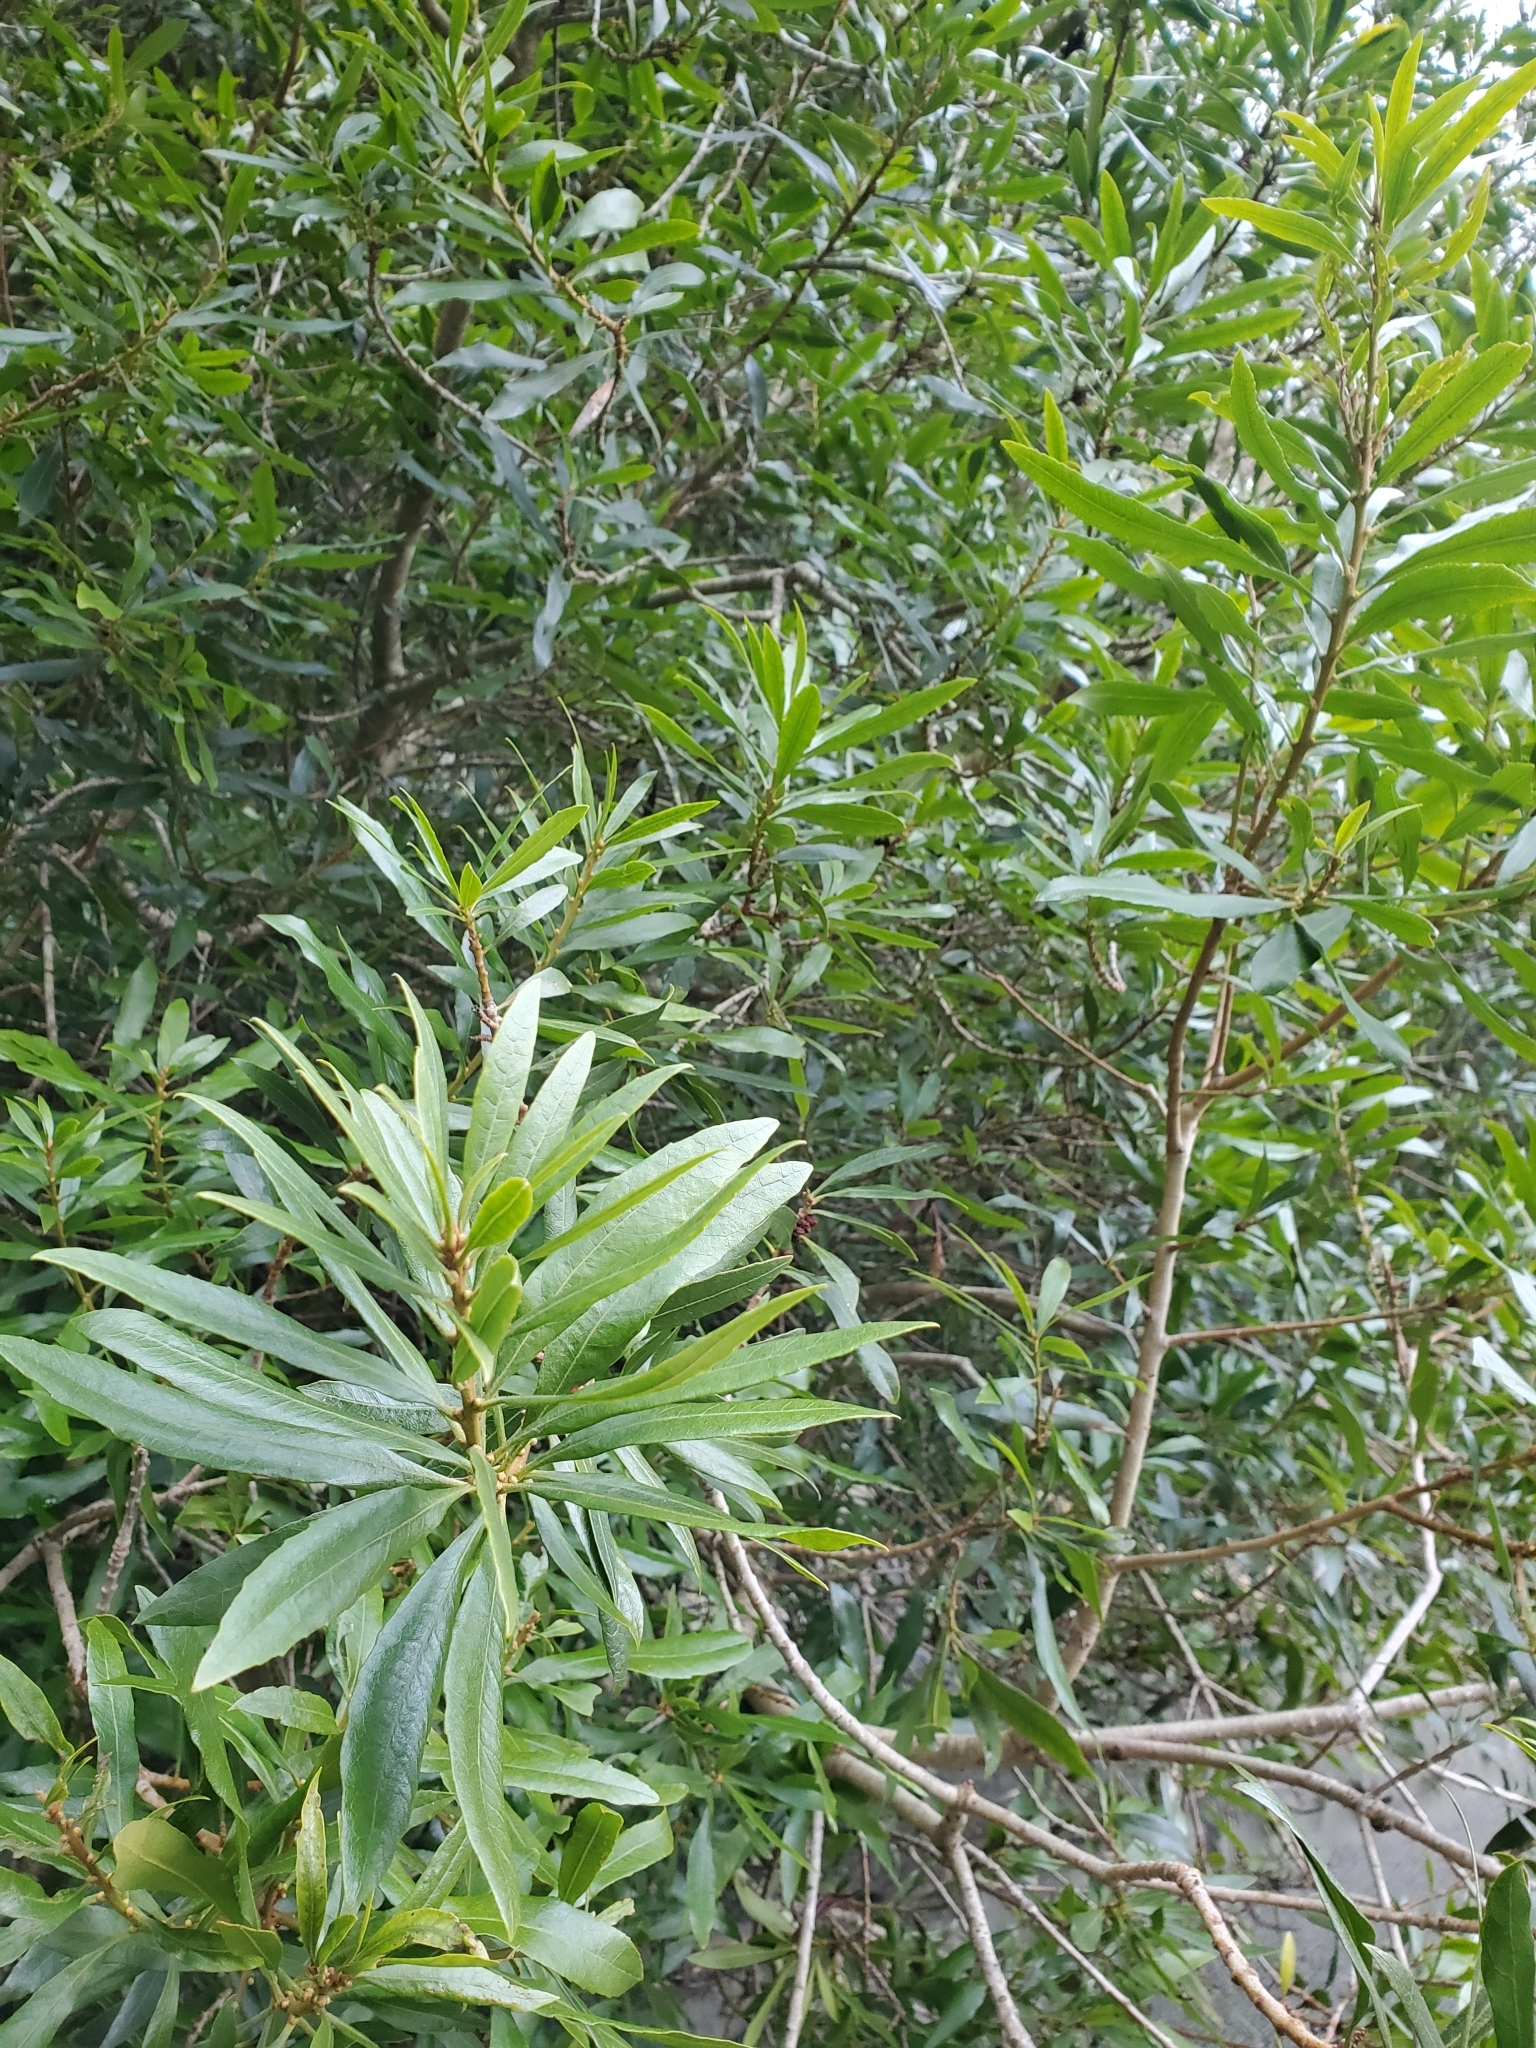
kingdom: Plantae
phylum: Tracheophyta
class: Magnoliopsida
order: Fagales
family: Myricaceae
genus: Morella
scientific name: Morella californica
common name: California wax-myrtle
